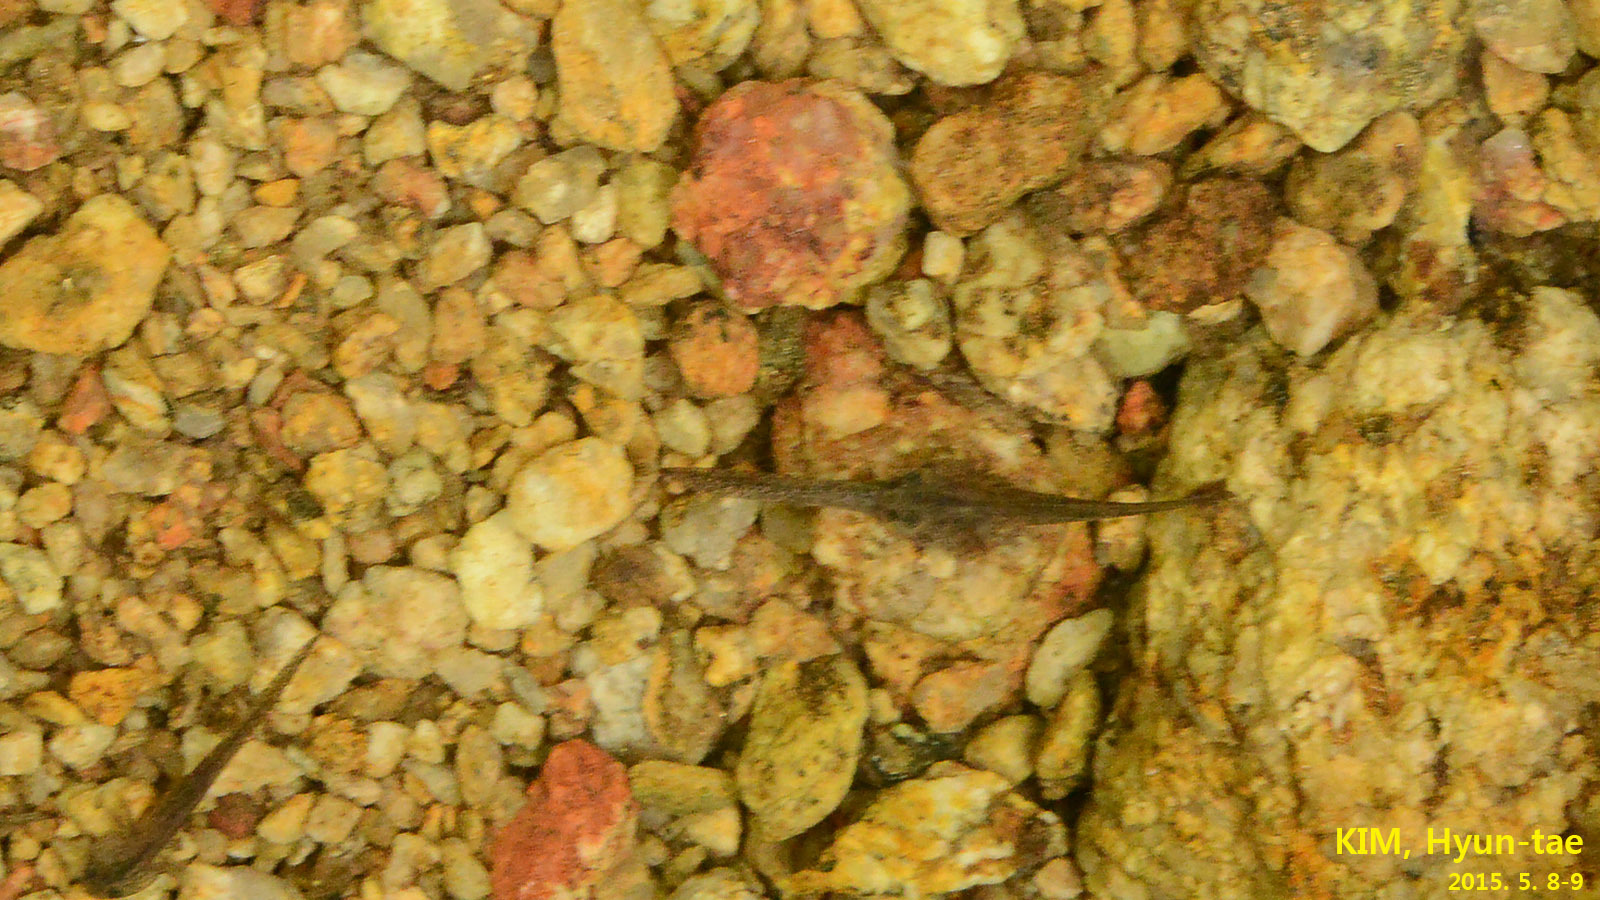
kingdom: Animalia
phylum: Chordata
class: Amphibia
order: Caudata
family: Hynobiidae
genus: Hynobius
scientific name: Hynobius quelpaertensis
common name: Cheju salamander
